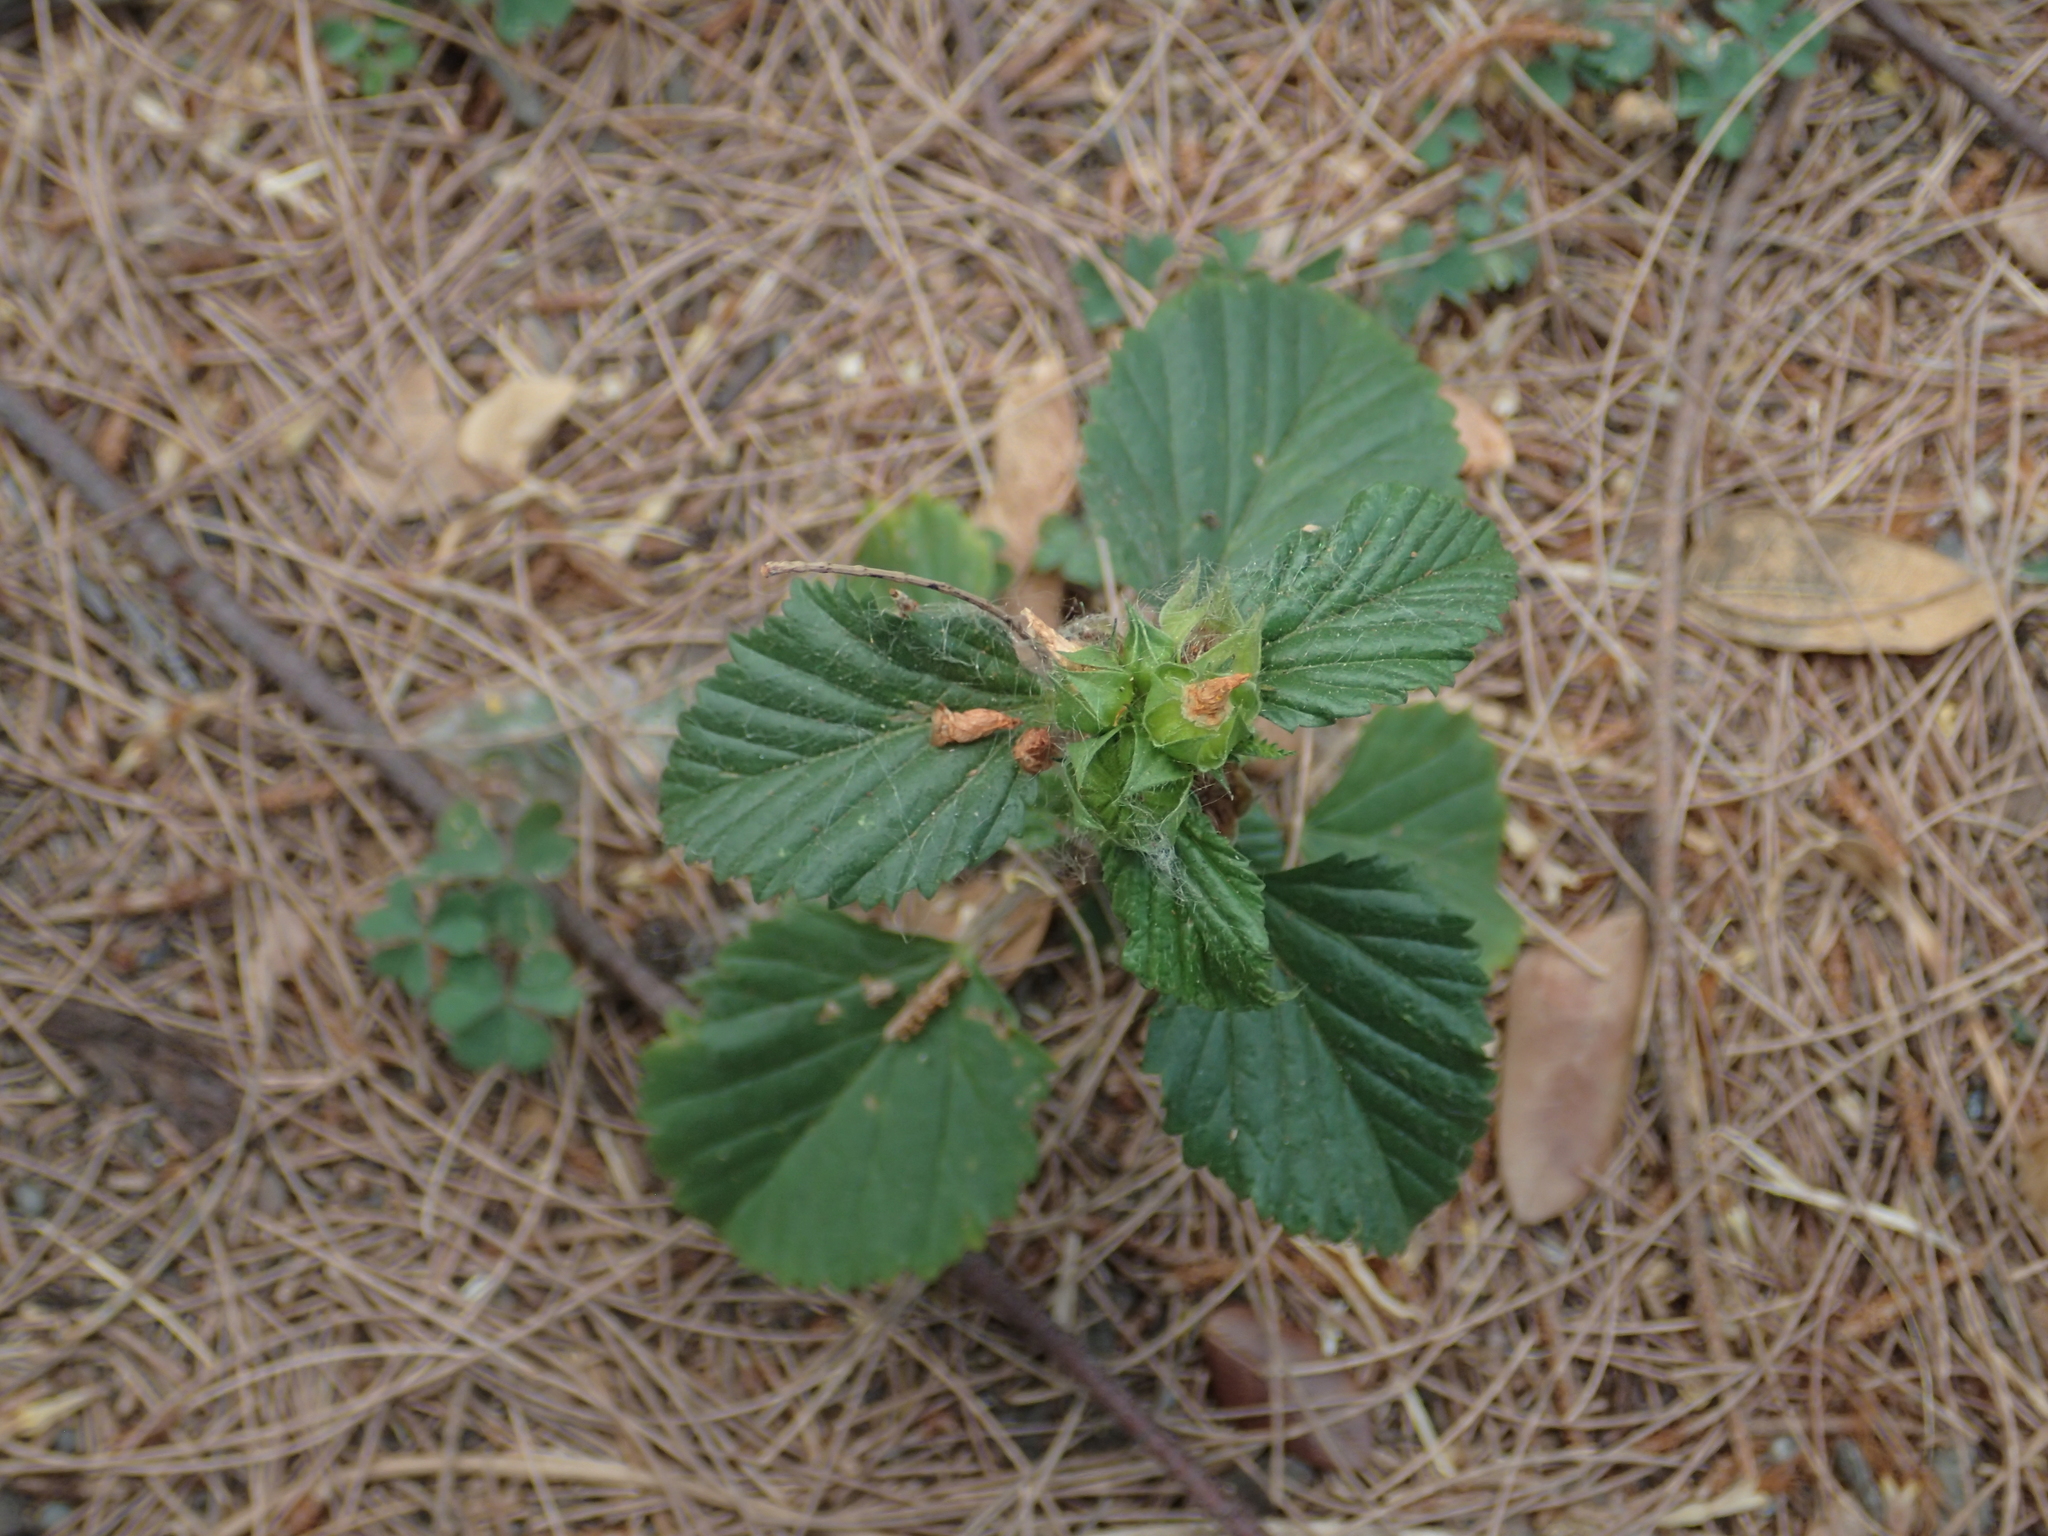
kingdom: Plantae
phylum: Tracheophyta
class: Magnoliopsida
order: Malvales
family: Malvaceae
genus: Malvastrum
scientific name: Malvastrum coromandelianum
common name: Threelobe false mallow
